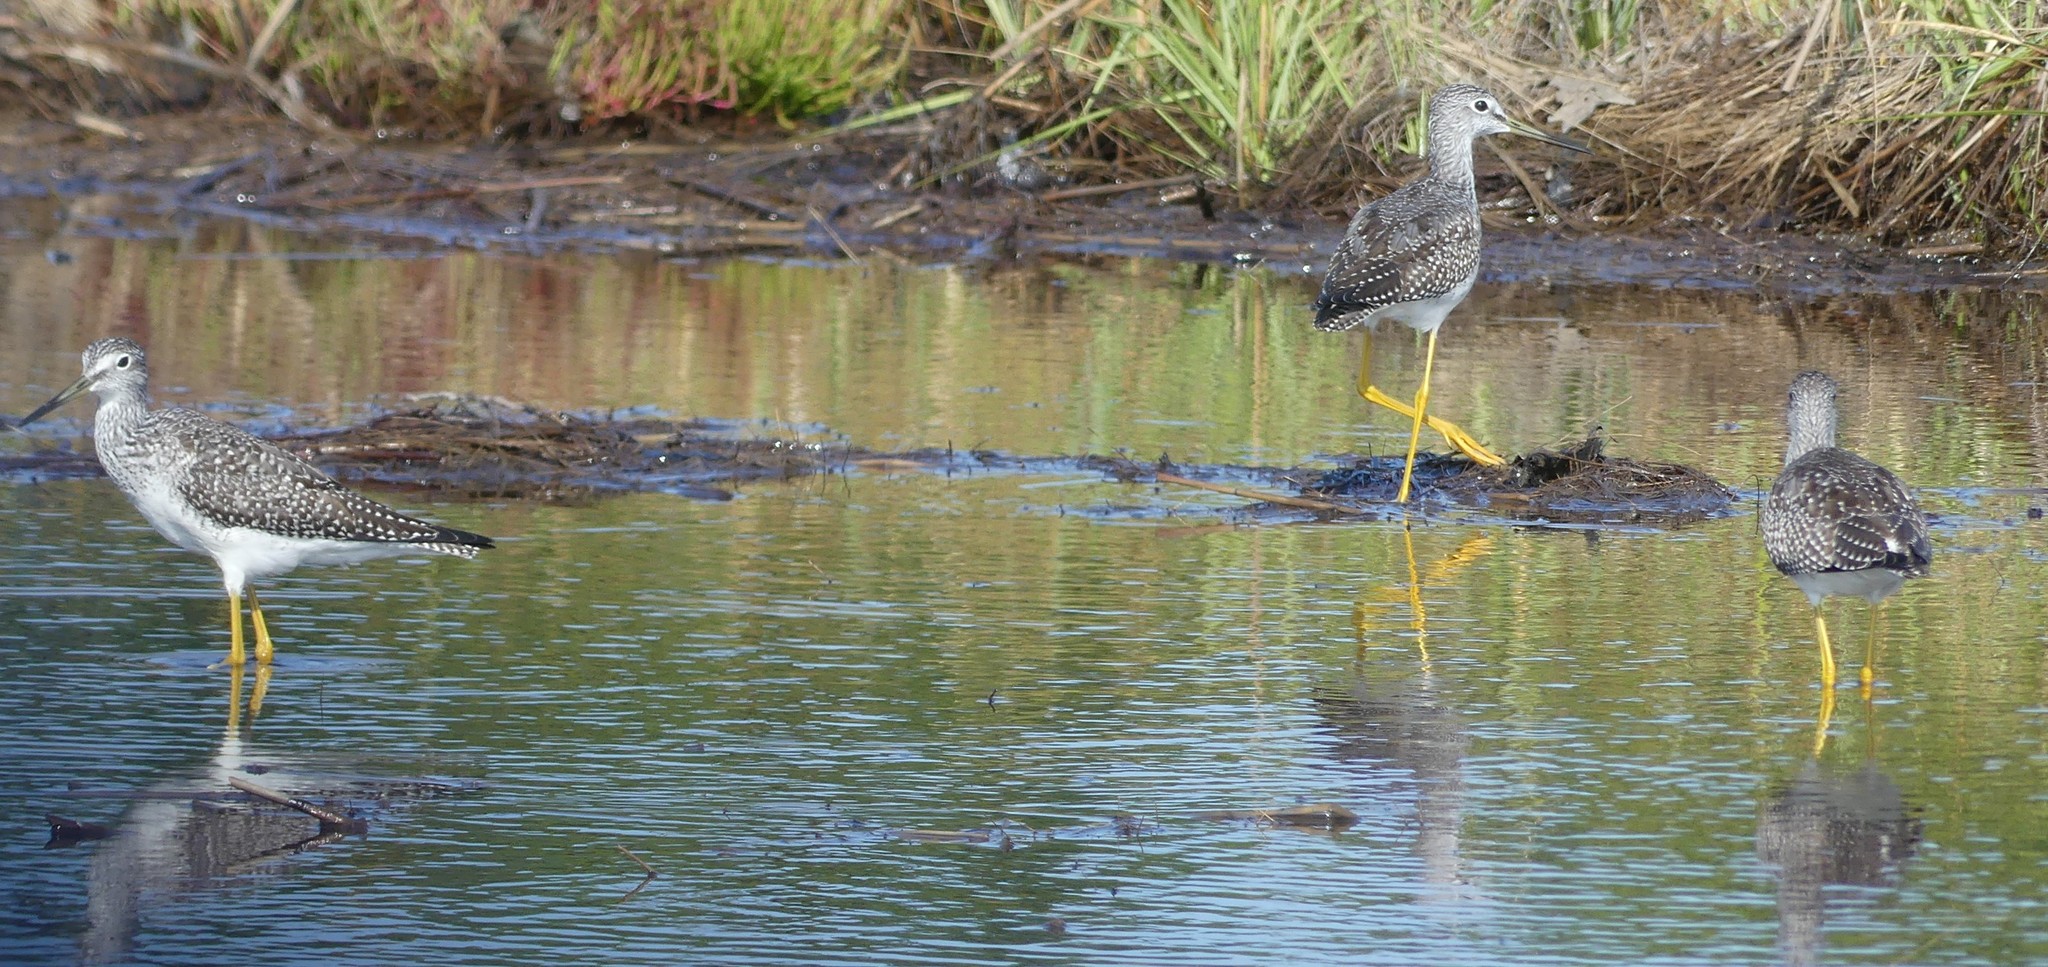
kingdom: Animalia
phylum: Chordata
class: Aves
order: Charadriiformes
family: Scolopacidae
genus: Tringa
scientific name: Tringa melanoleuca
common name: Greater yellowlegs
